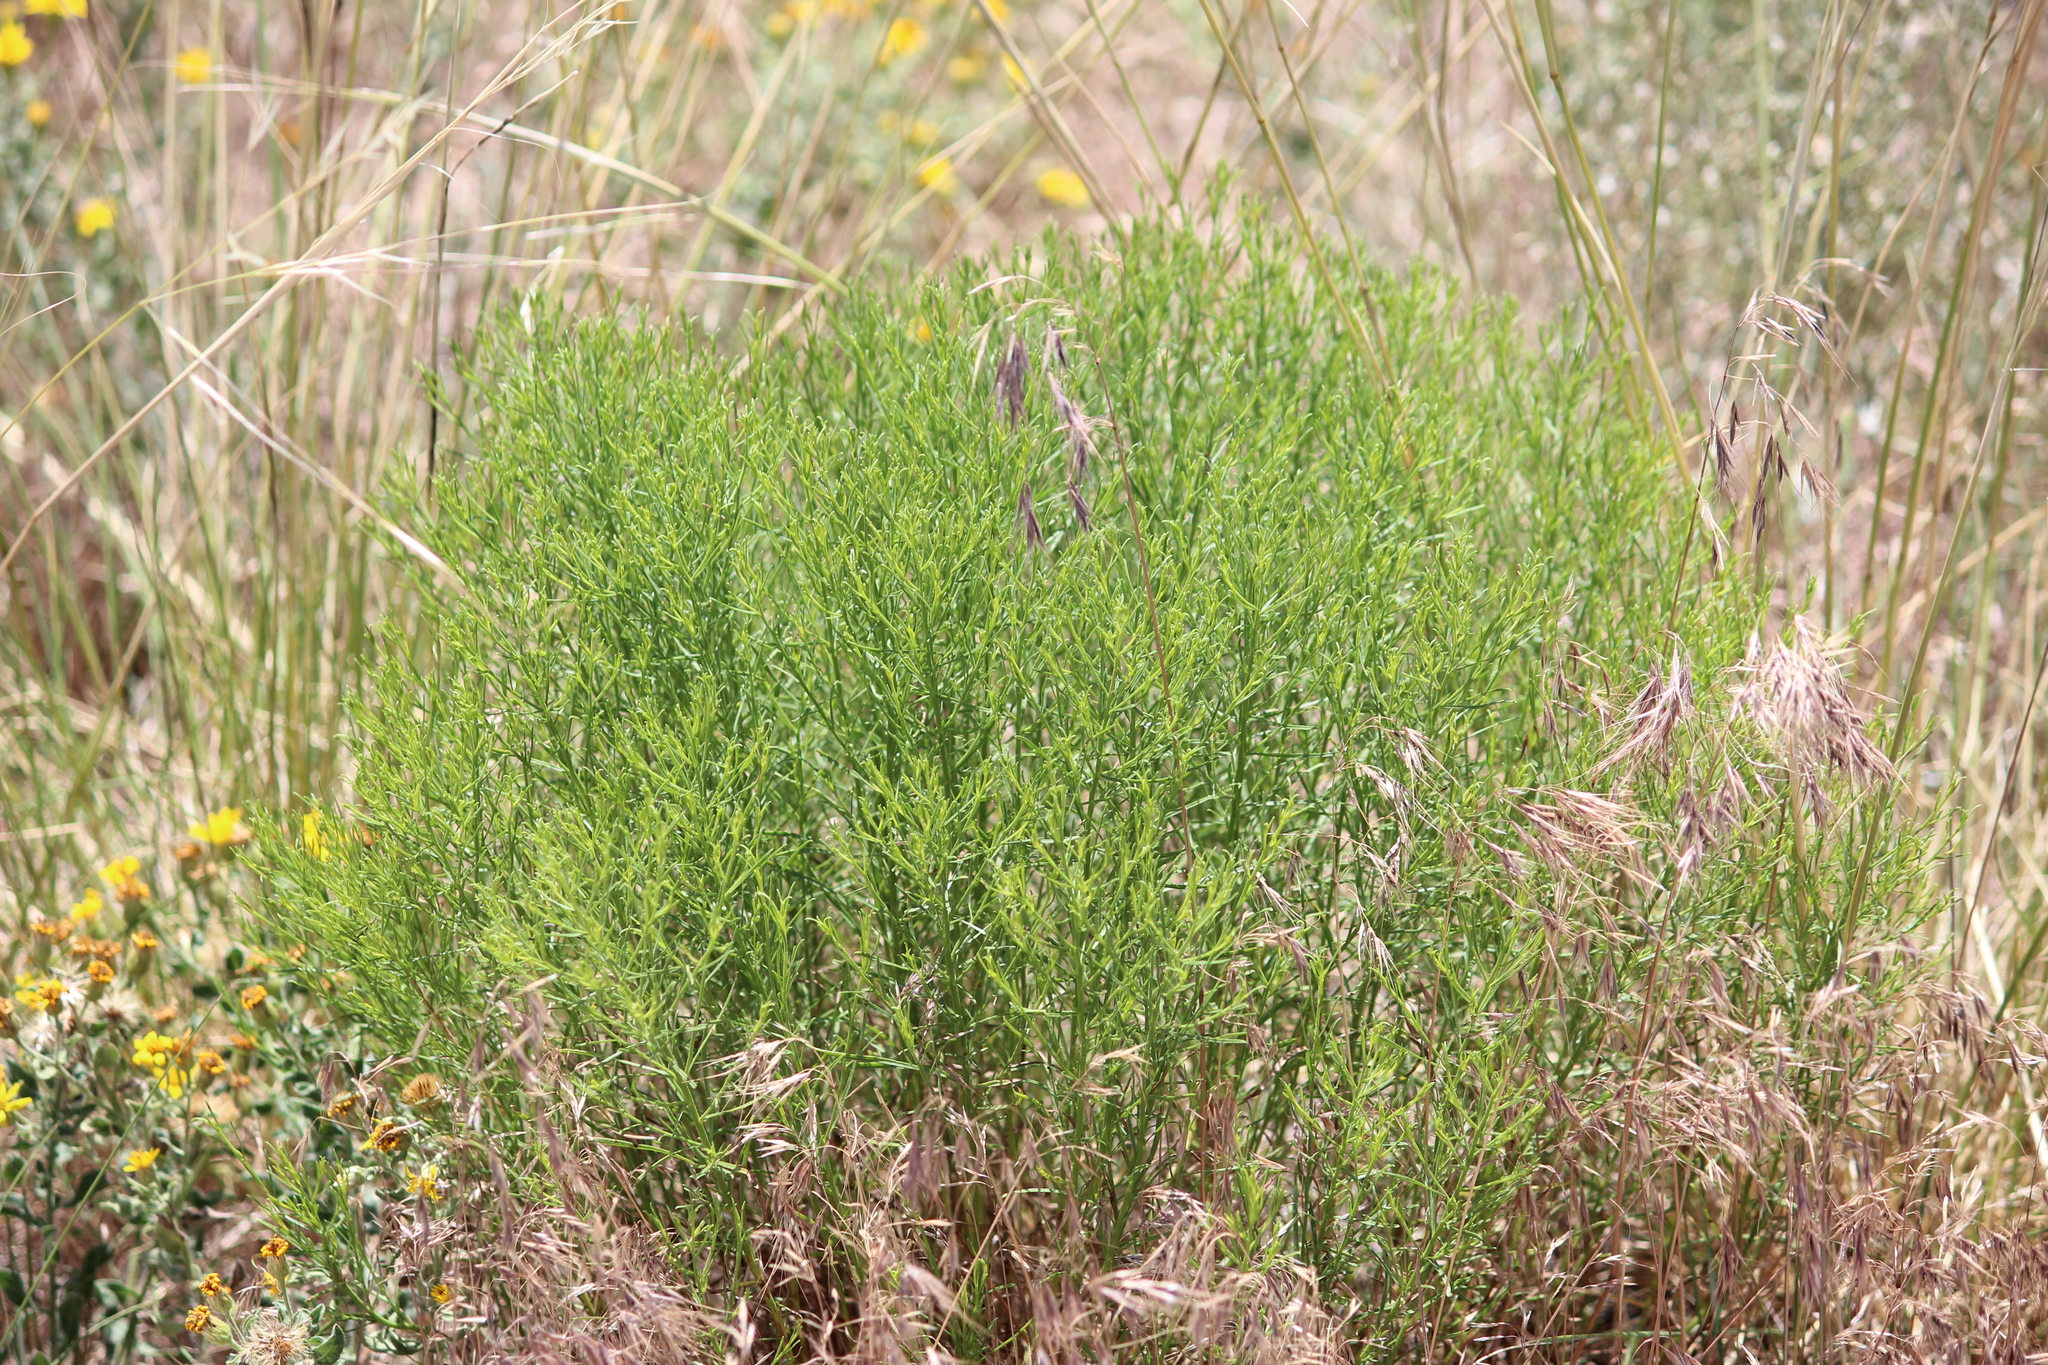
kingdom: Plantae
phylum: Tracheophyta
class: Magnoliopsida
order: Asterales
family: Asteraceae
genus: Gutierrezia
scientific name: Gutierrezia sarothrae
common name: Broom snakeweed
